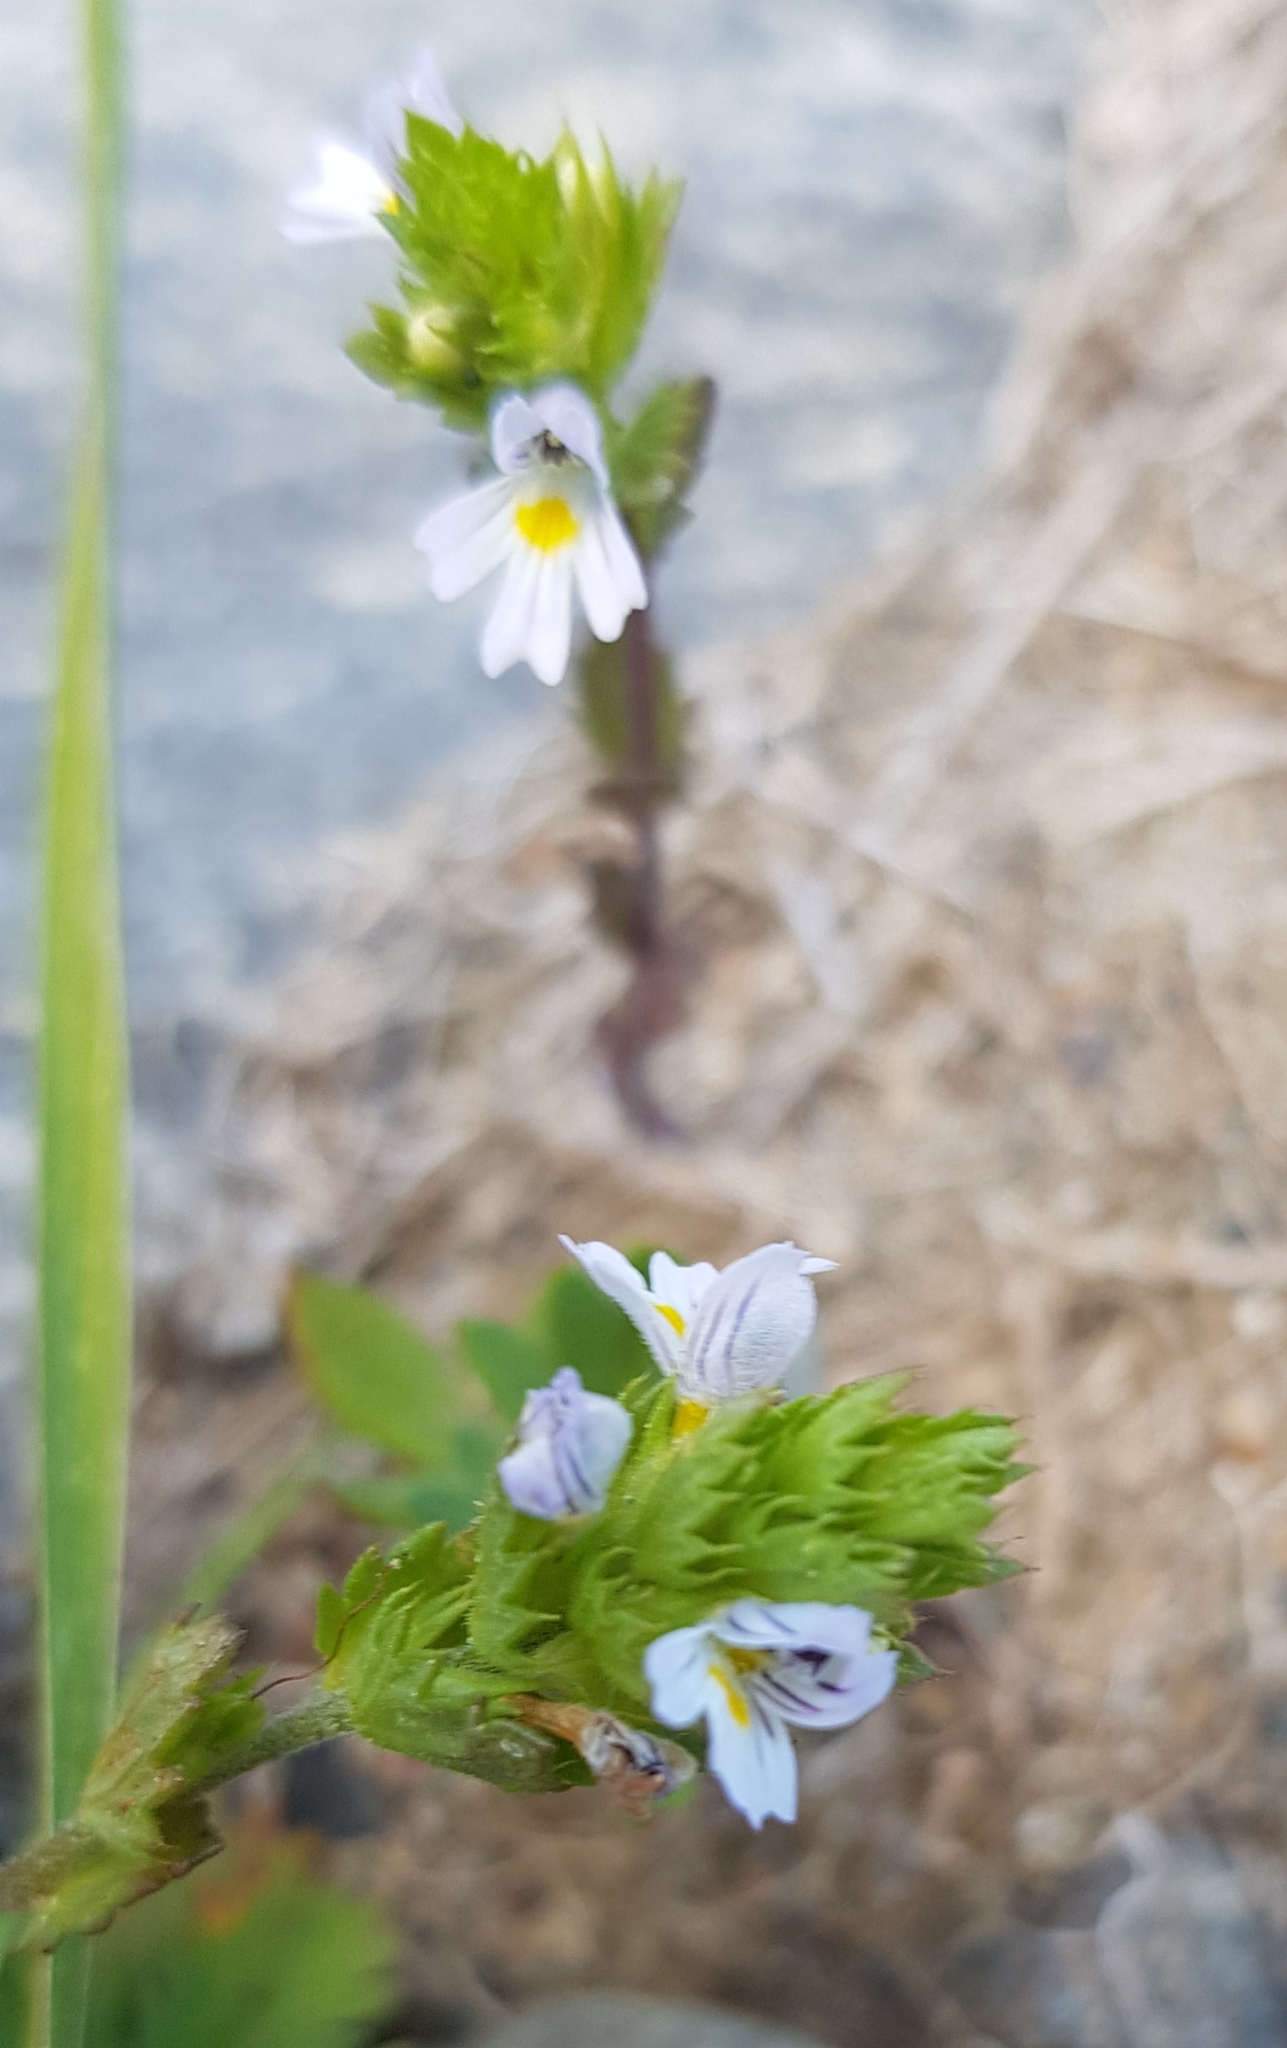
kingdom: Plantae
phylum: Tracheophyta
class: Magnoliopsida
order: Lamiales
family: Orobanchaceae
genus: Euphrasia
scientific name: Euphrasia pectinata
